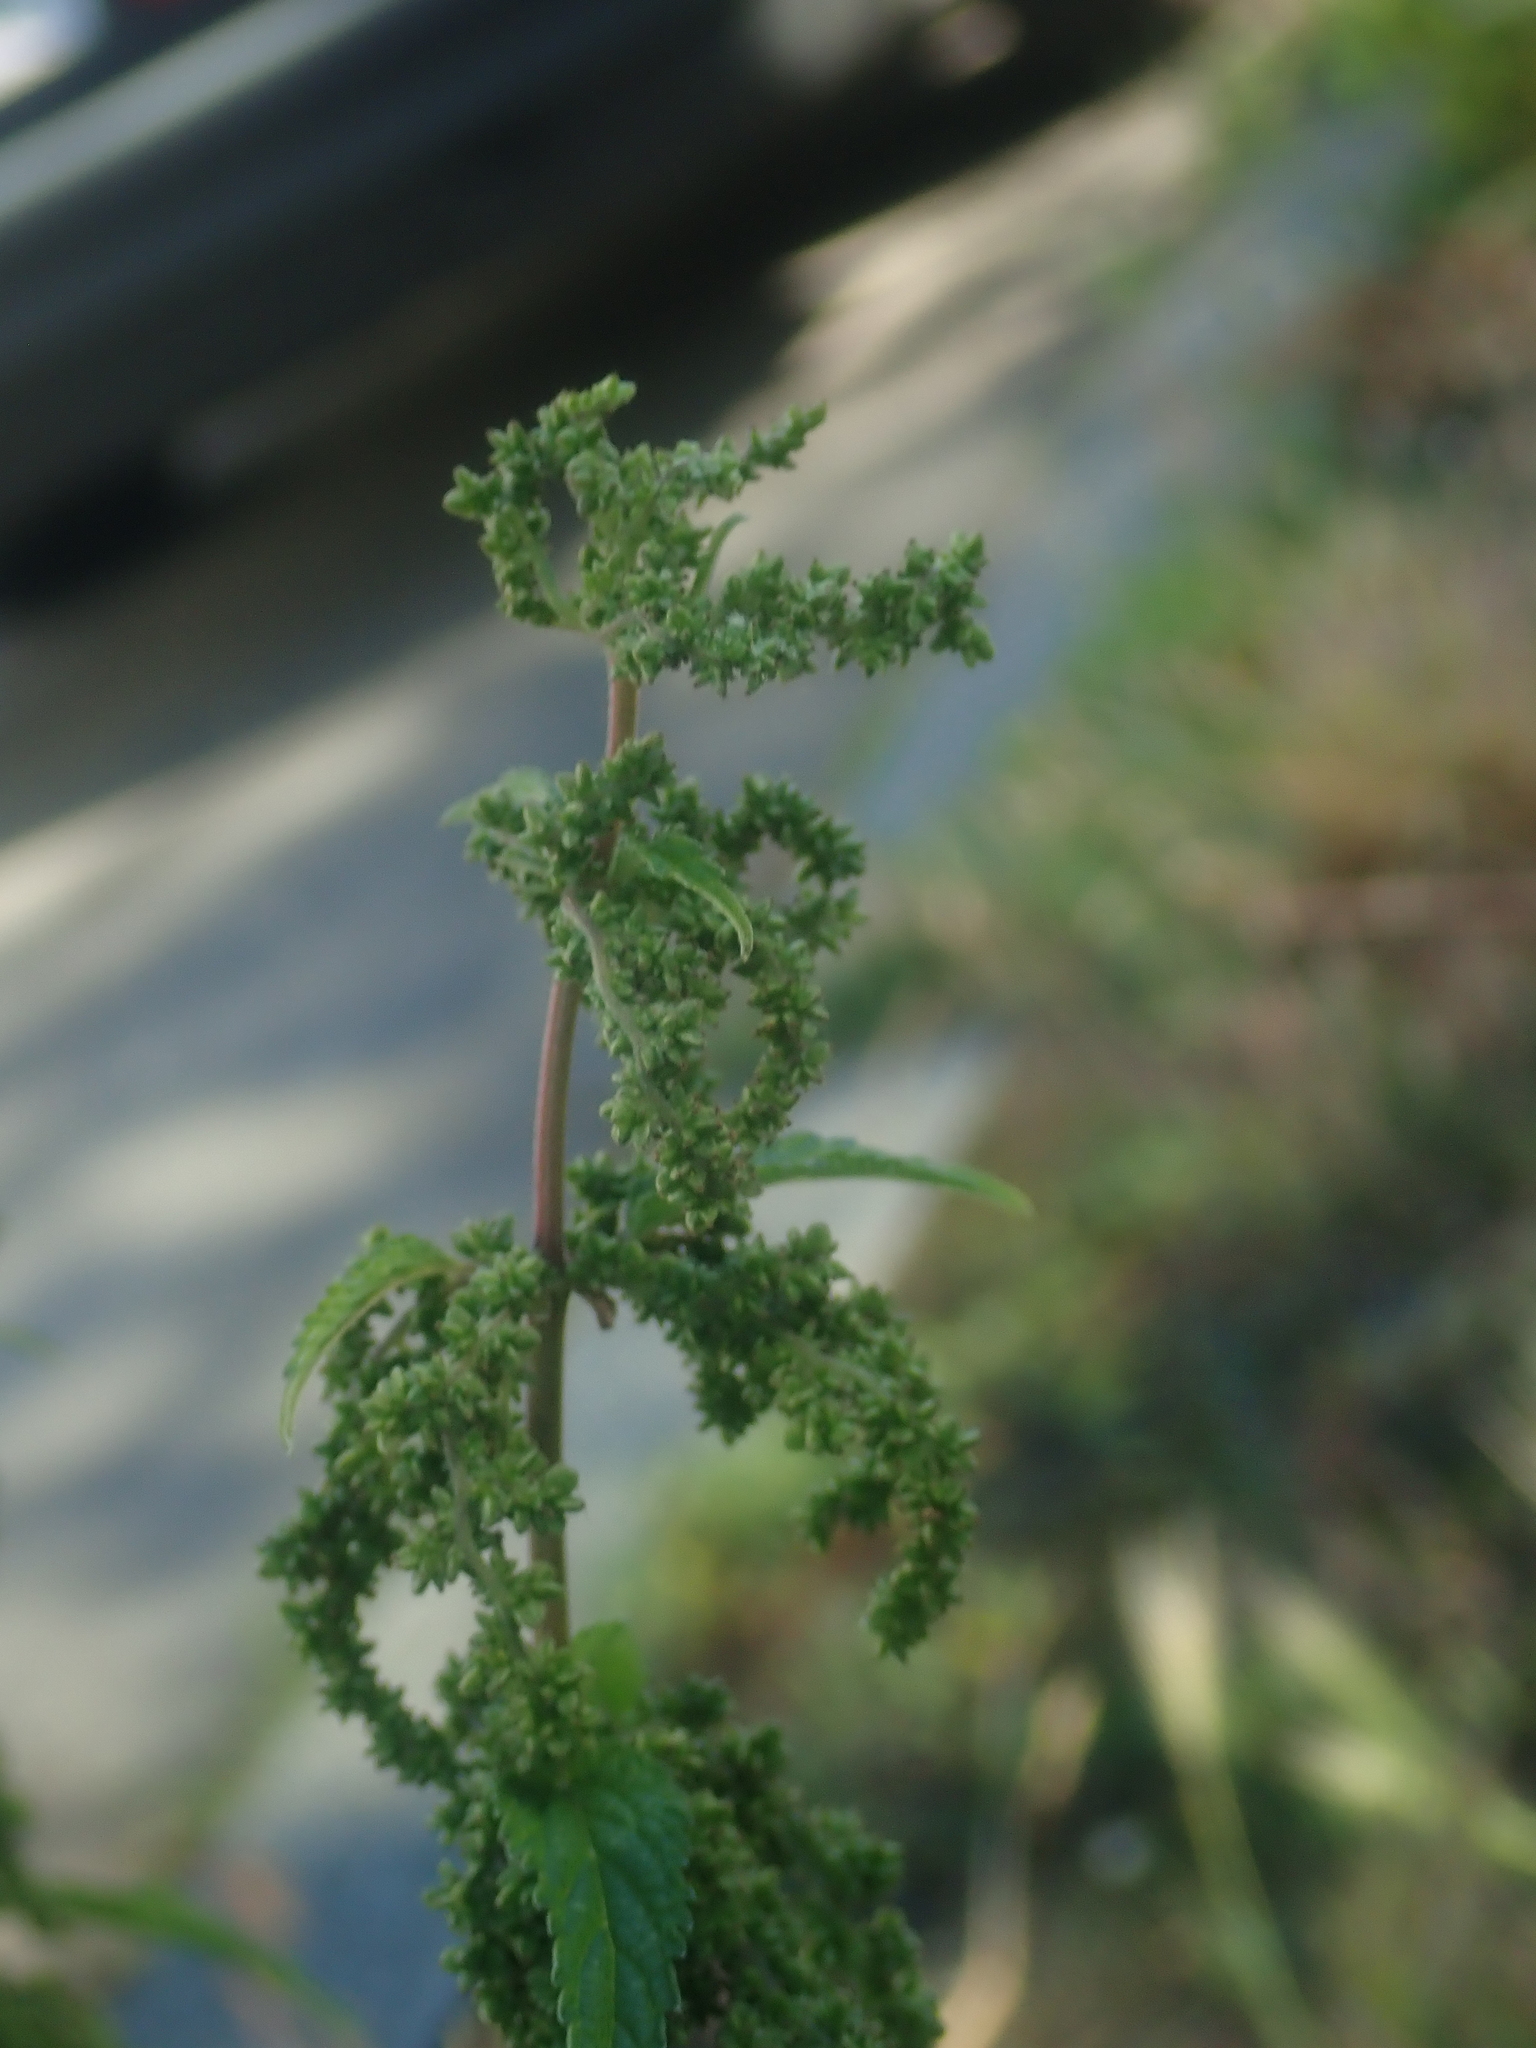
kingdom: Plantae
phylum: Tracheophyta
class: Magnoliopsida
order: Rosales
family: Urticaceae
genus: Urtica
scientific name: Urtica dioica
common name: Common nettle
